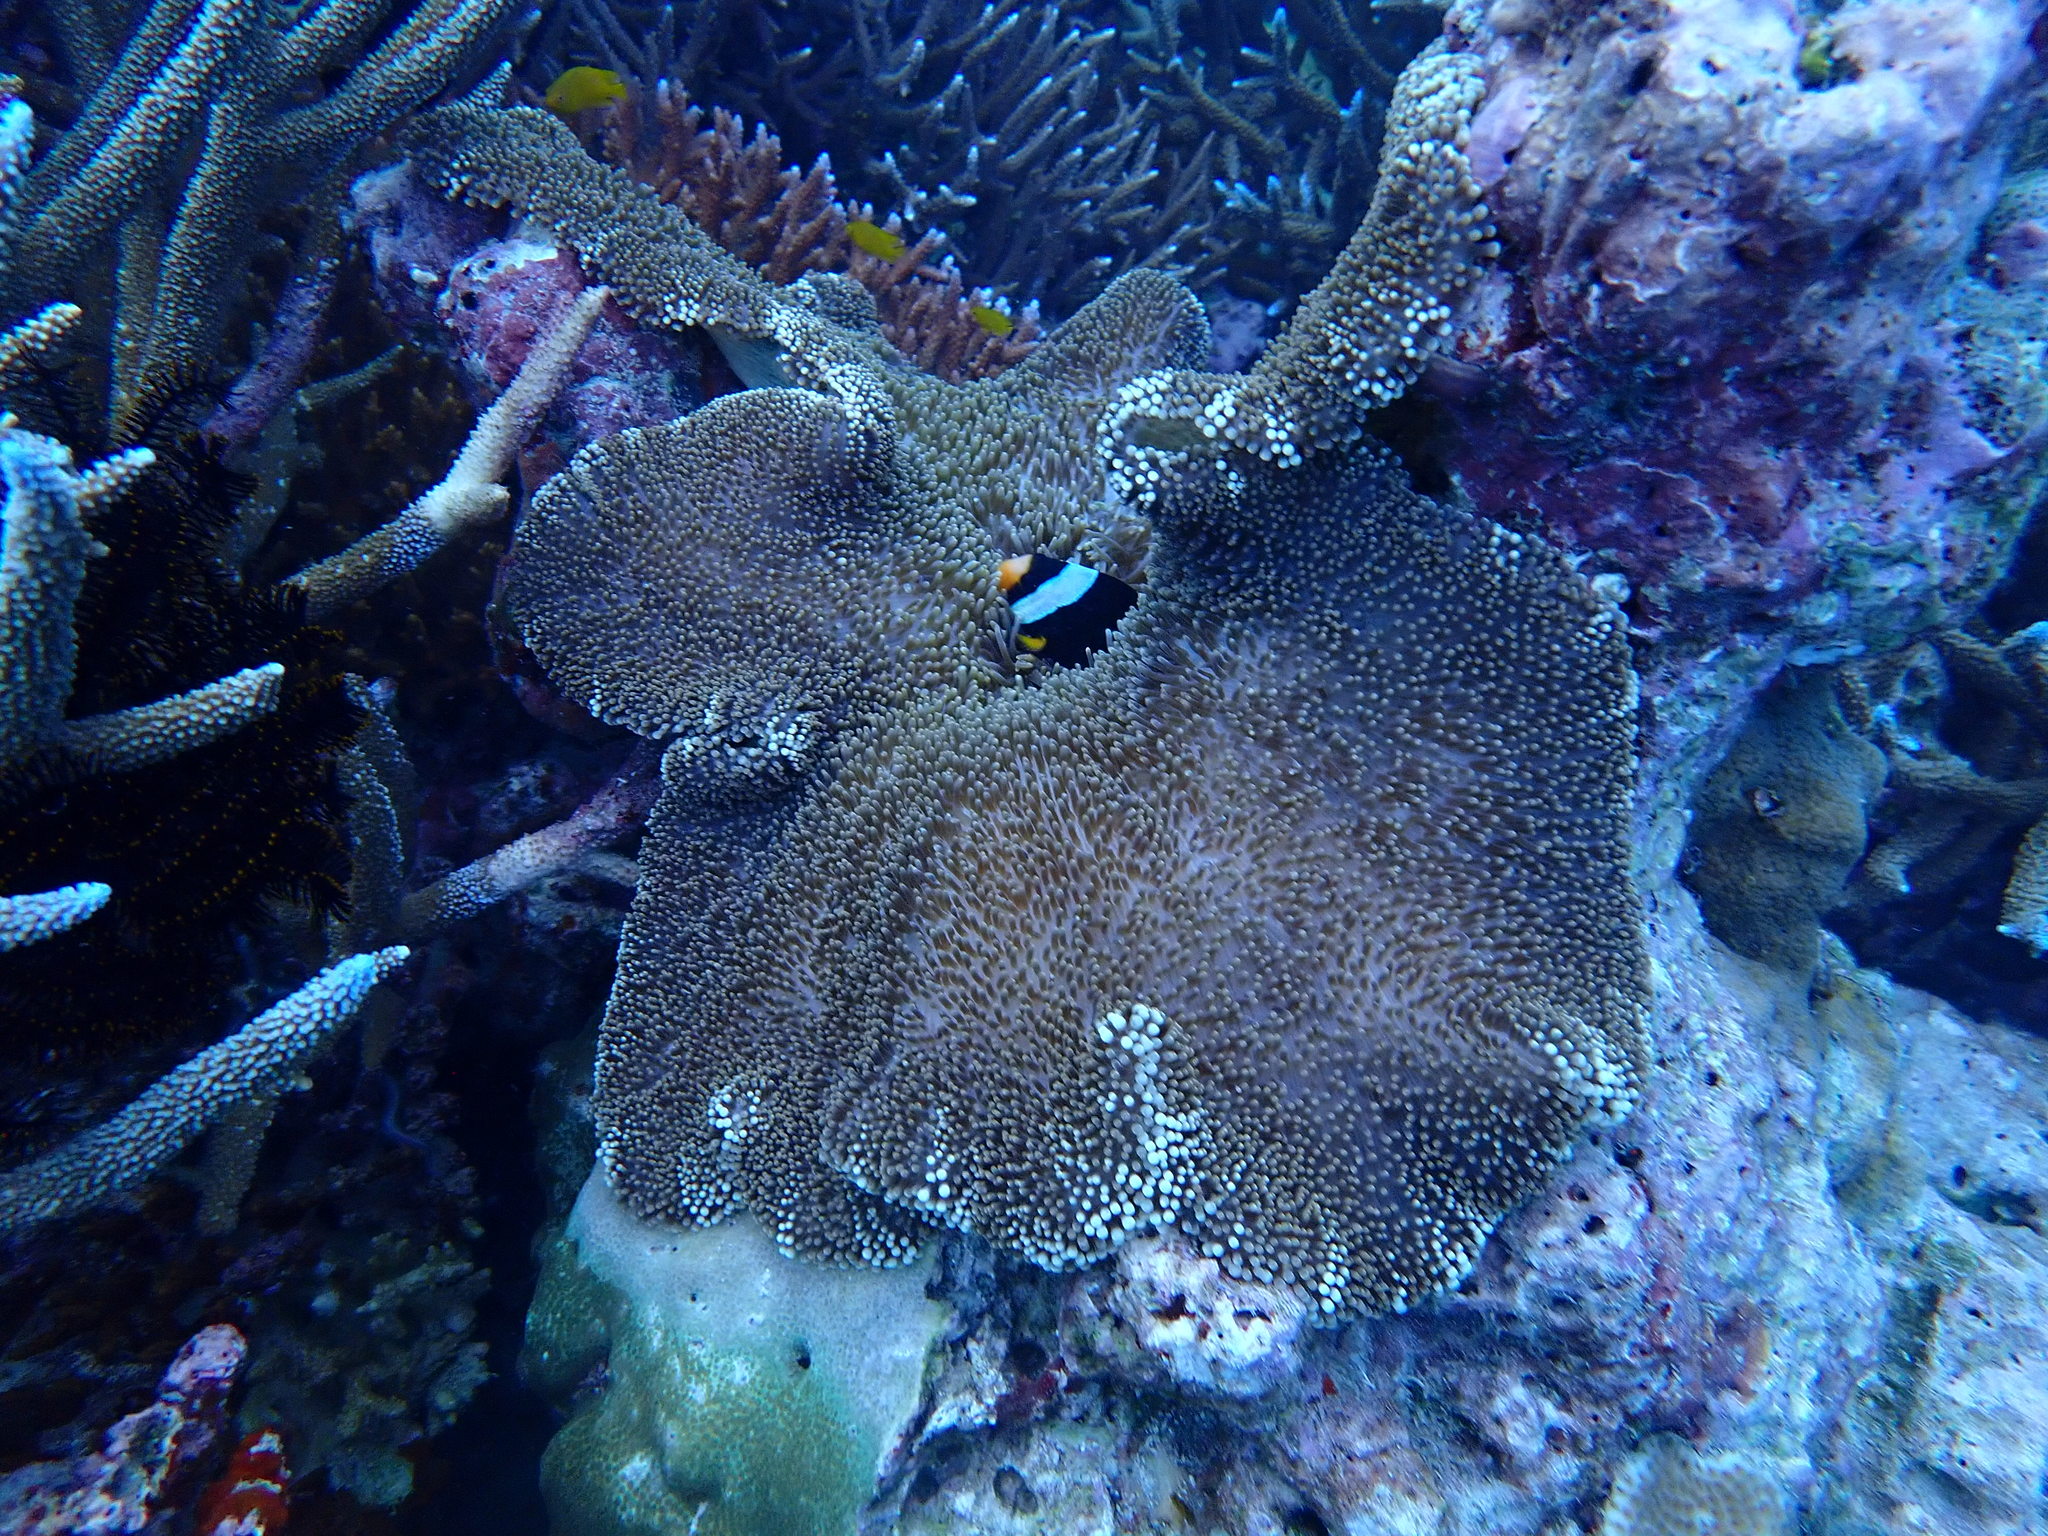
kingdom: Animalia
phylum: Chordata
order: Perciformes
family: Pomacentridae
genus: Amphiprion
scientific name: Amphiprion clarkii
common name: Clark's anemonefish
